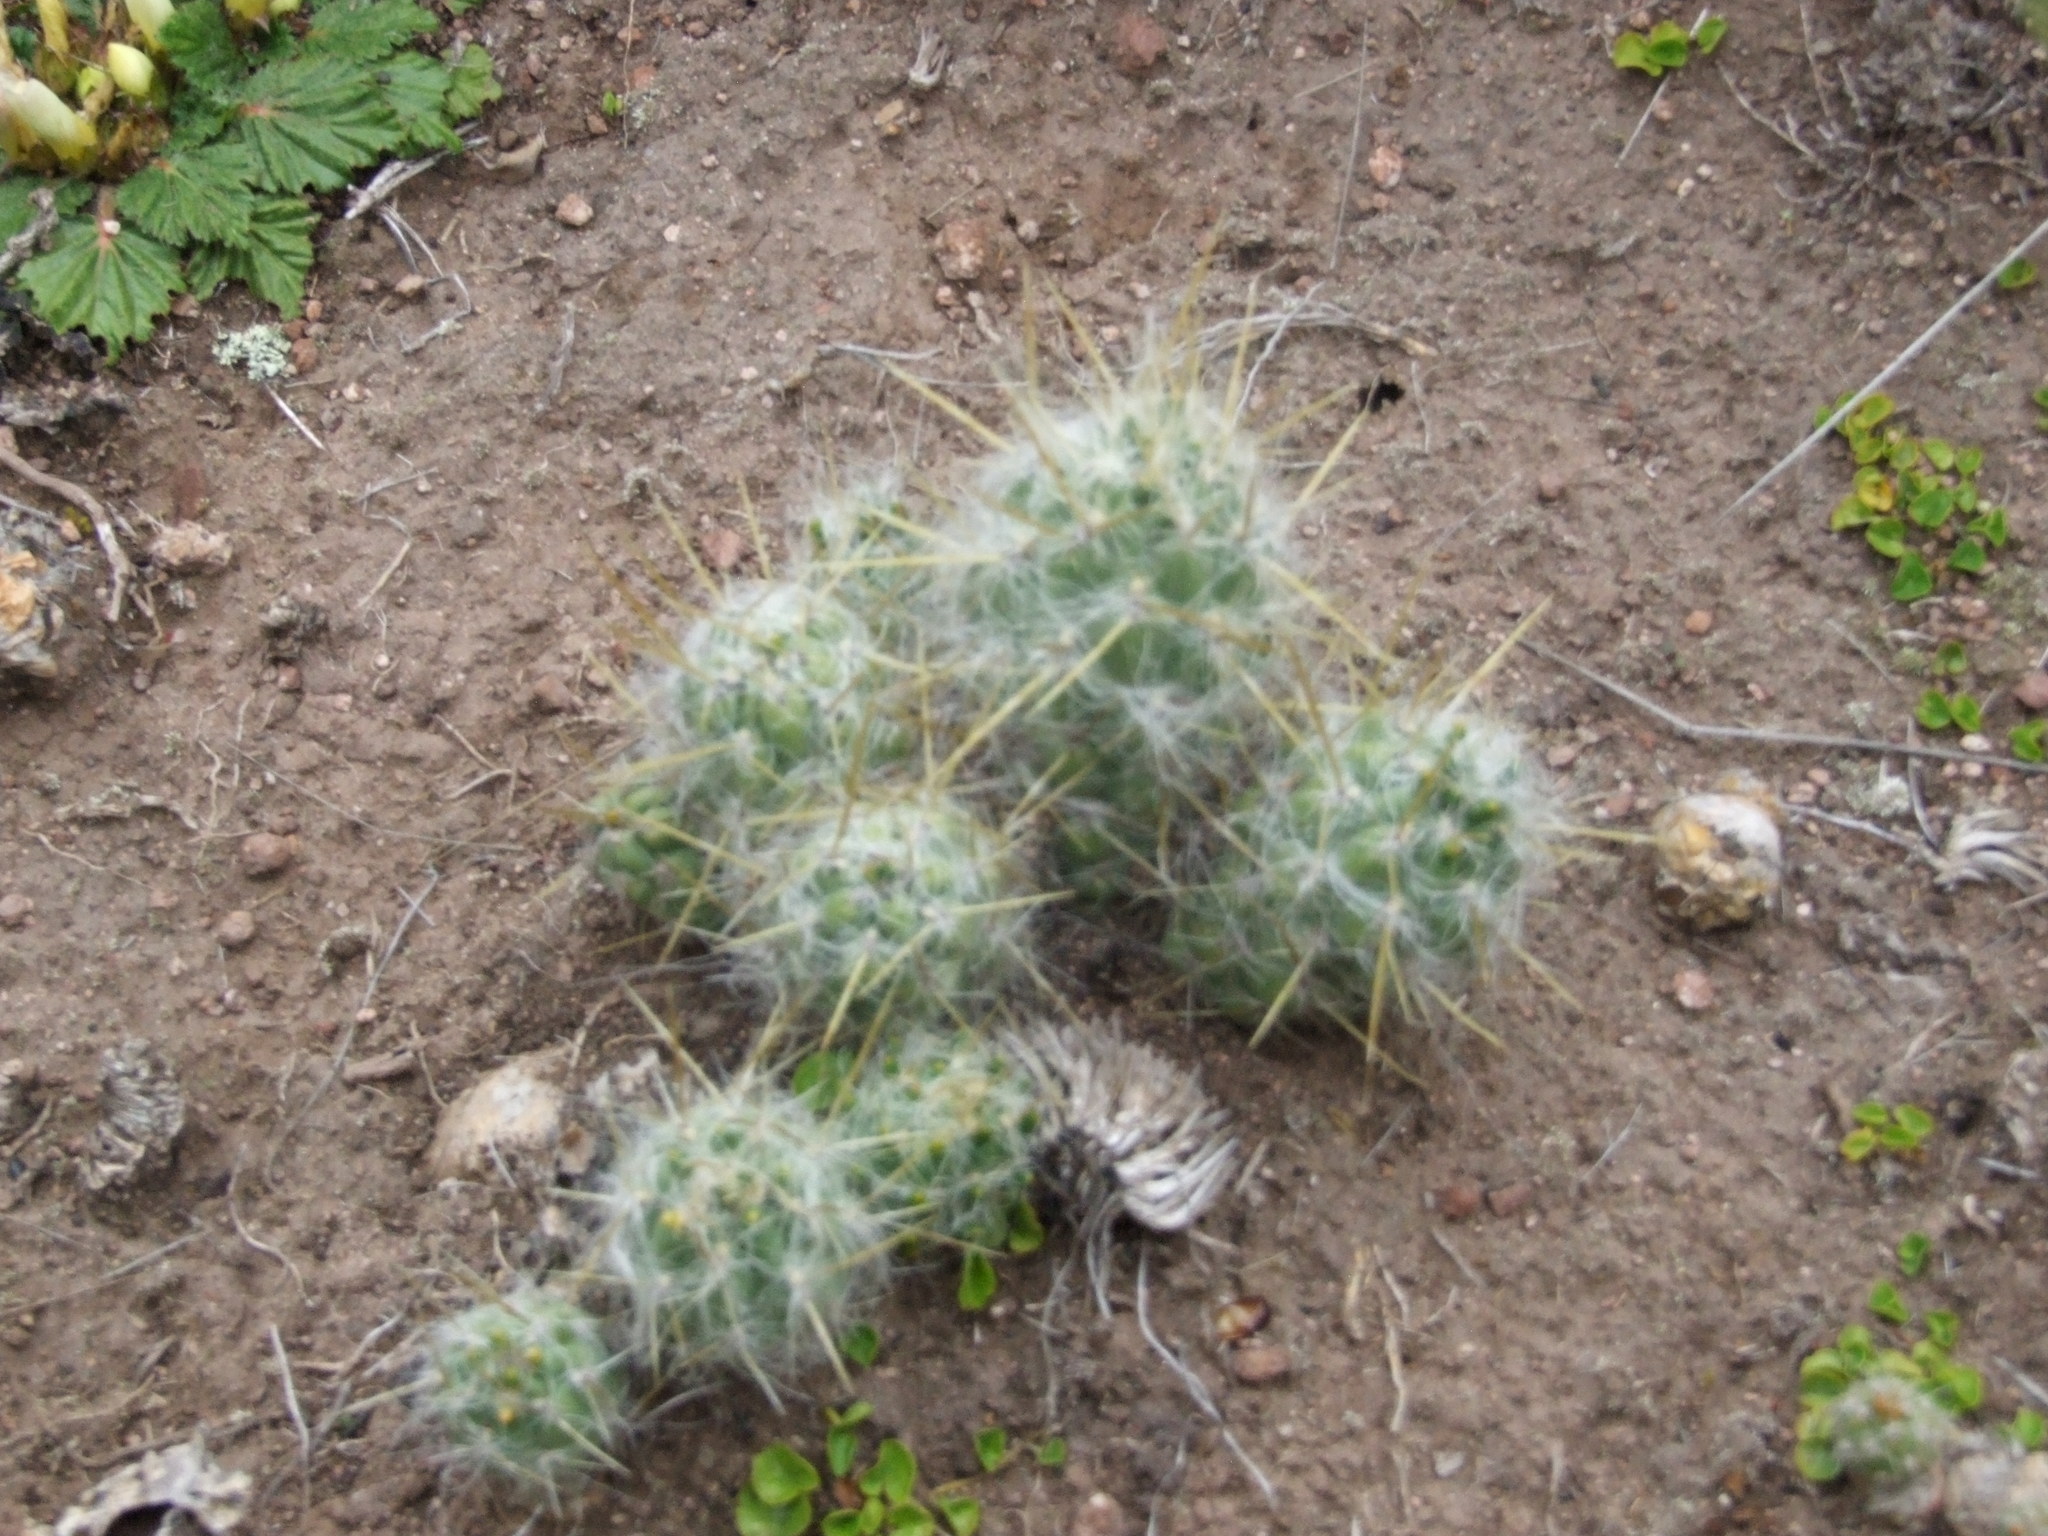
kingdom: Plantae
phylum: Tracheophyta
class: Magnoliopsida
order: Caryophyllales
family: Cactaceae
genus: Austrocylindropuntia
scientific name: Austrocylindropuntia floccosa
